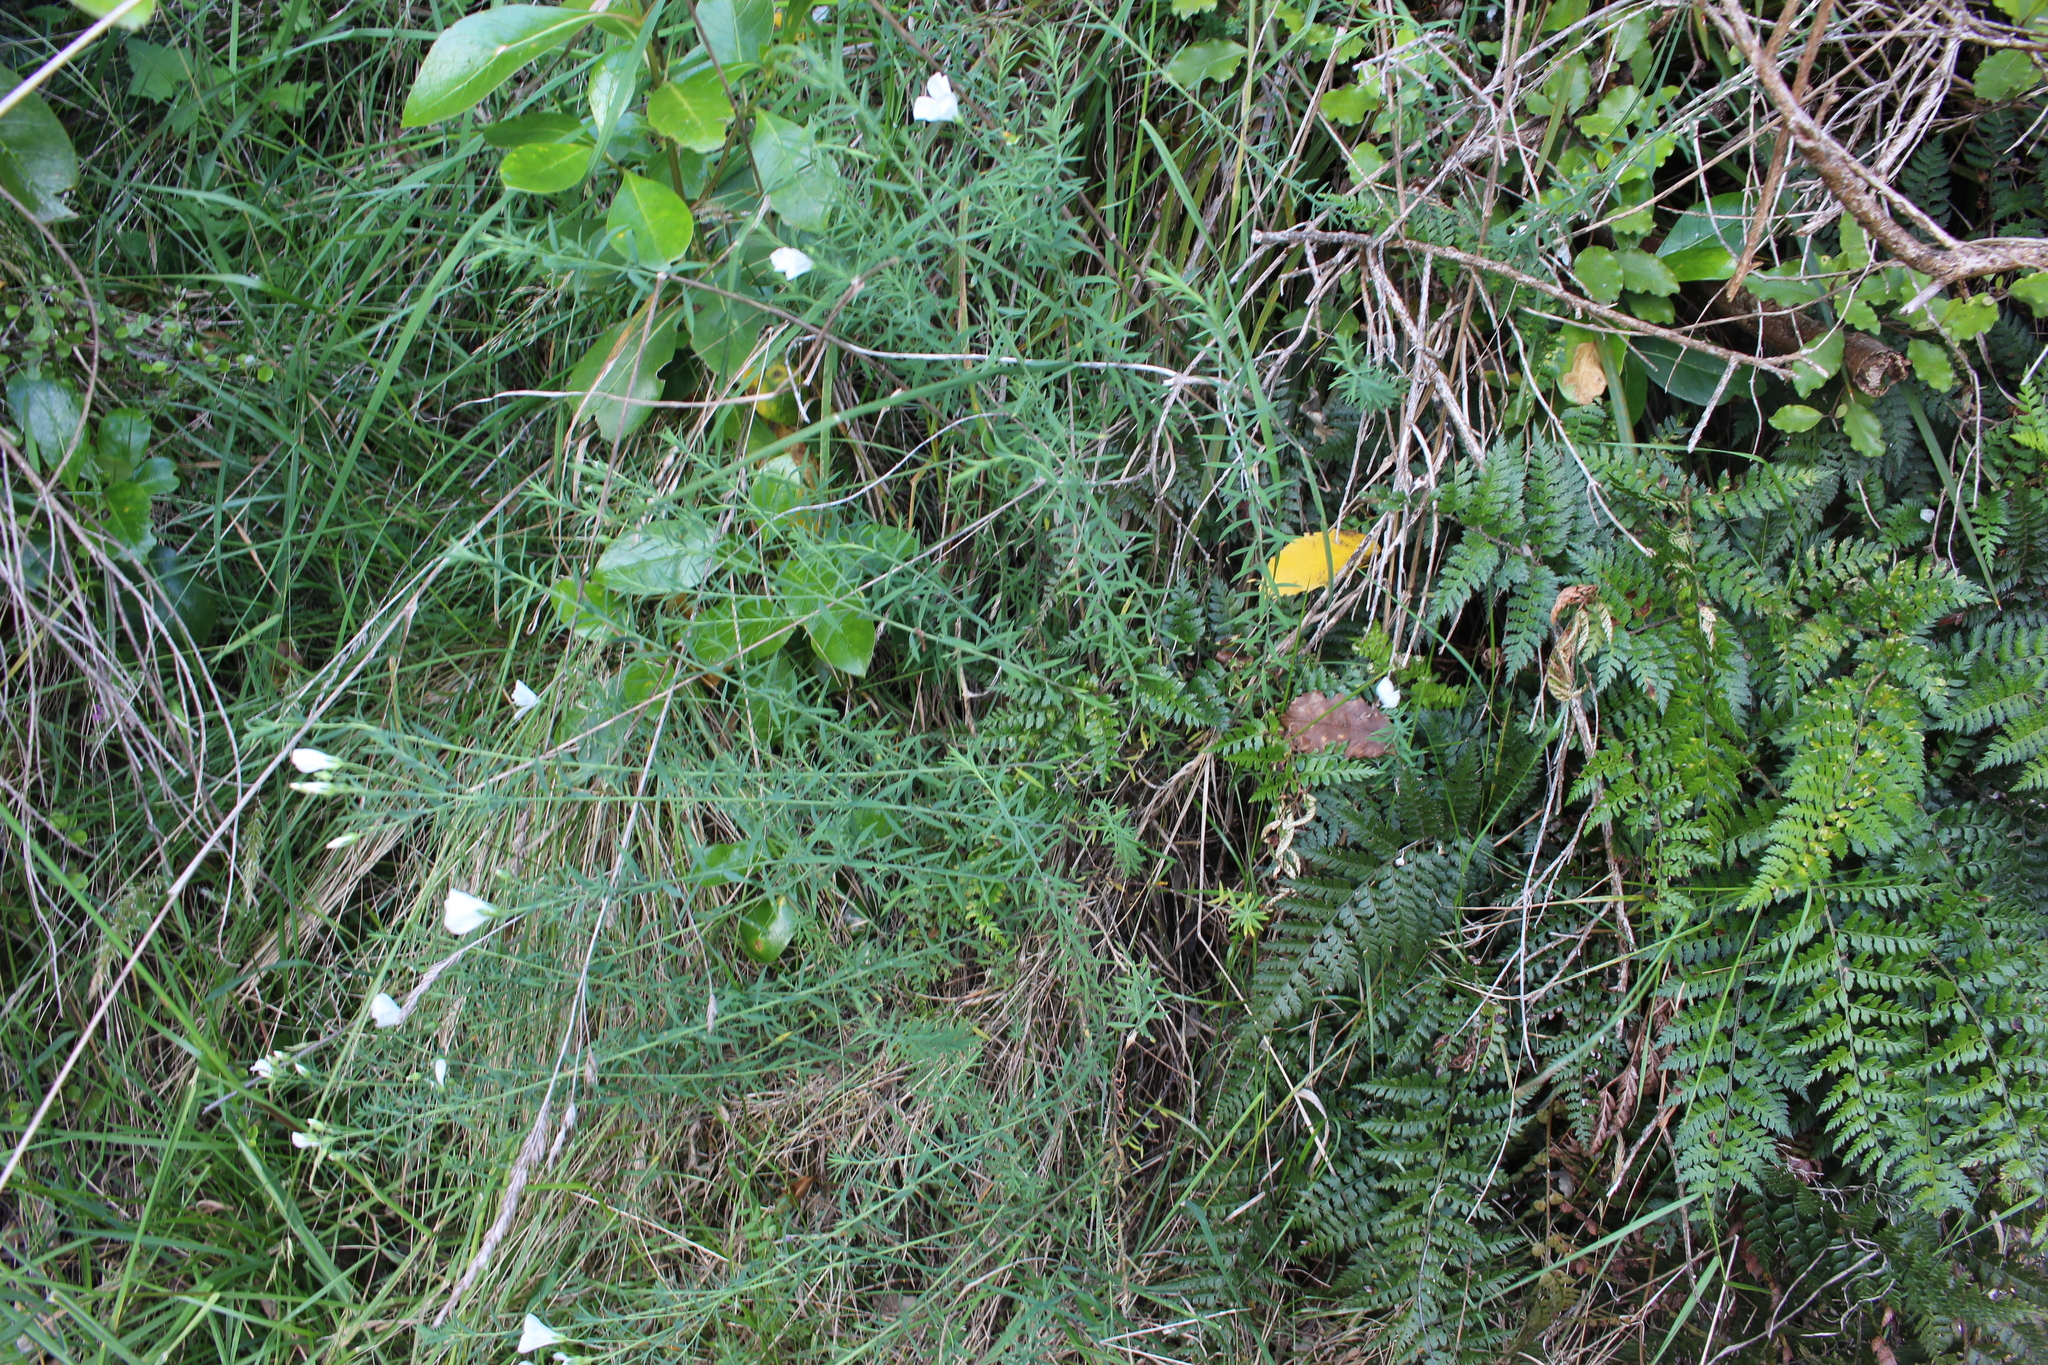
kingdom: Plantae
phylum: Tracheophyta
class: Magnoliopsida
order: Malpighiales
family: Linaceae
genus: Linum
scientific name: Linum monogynum
